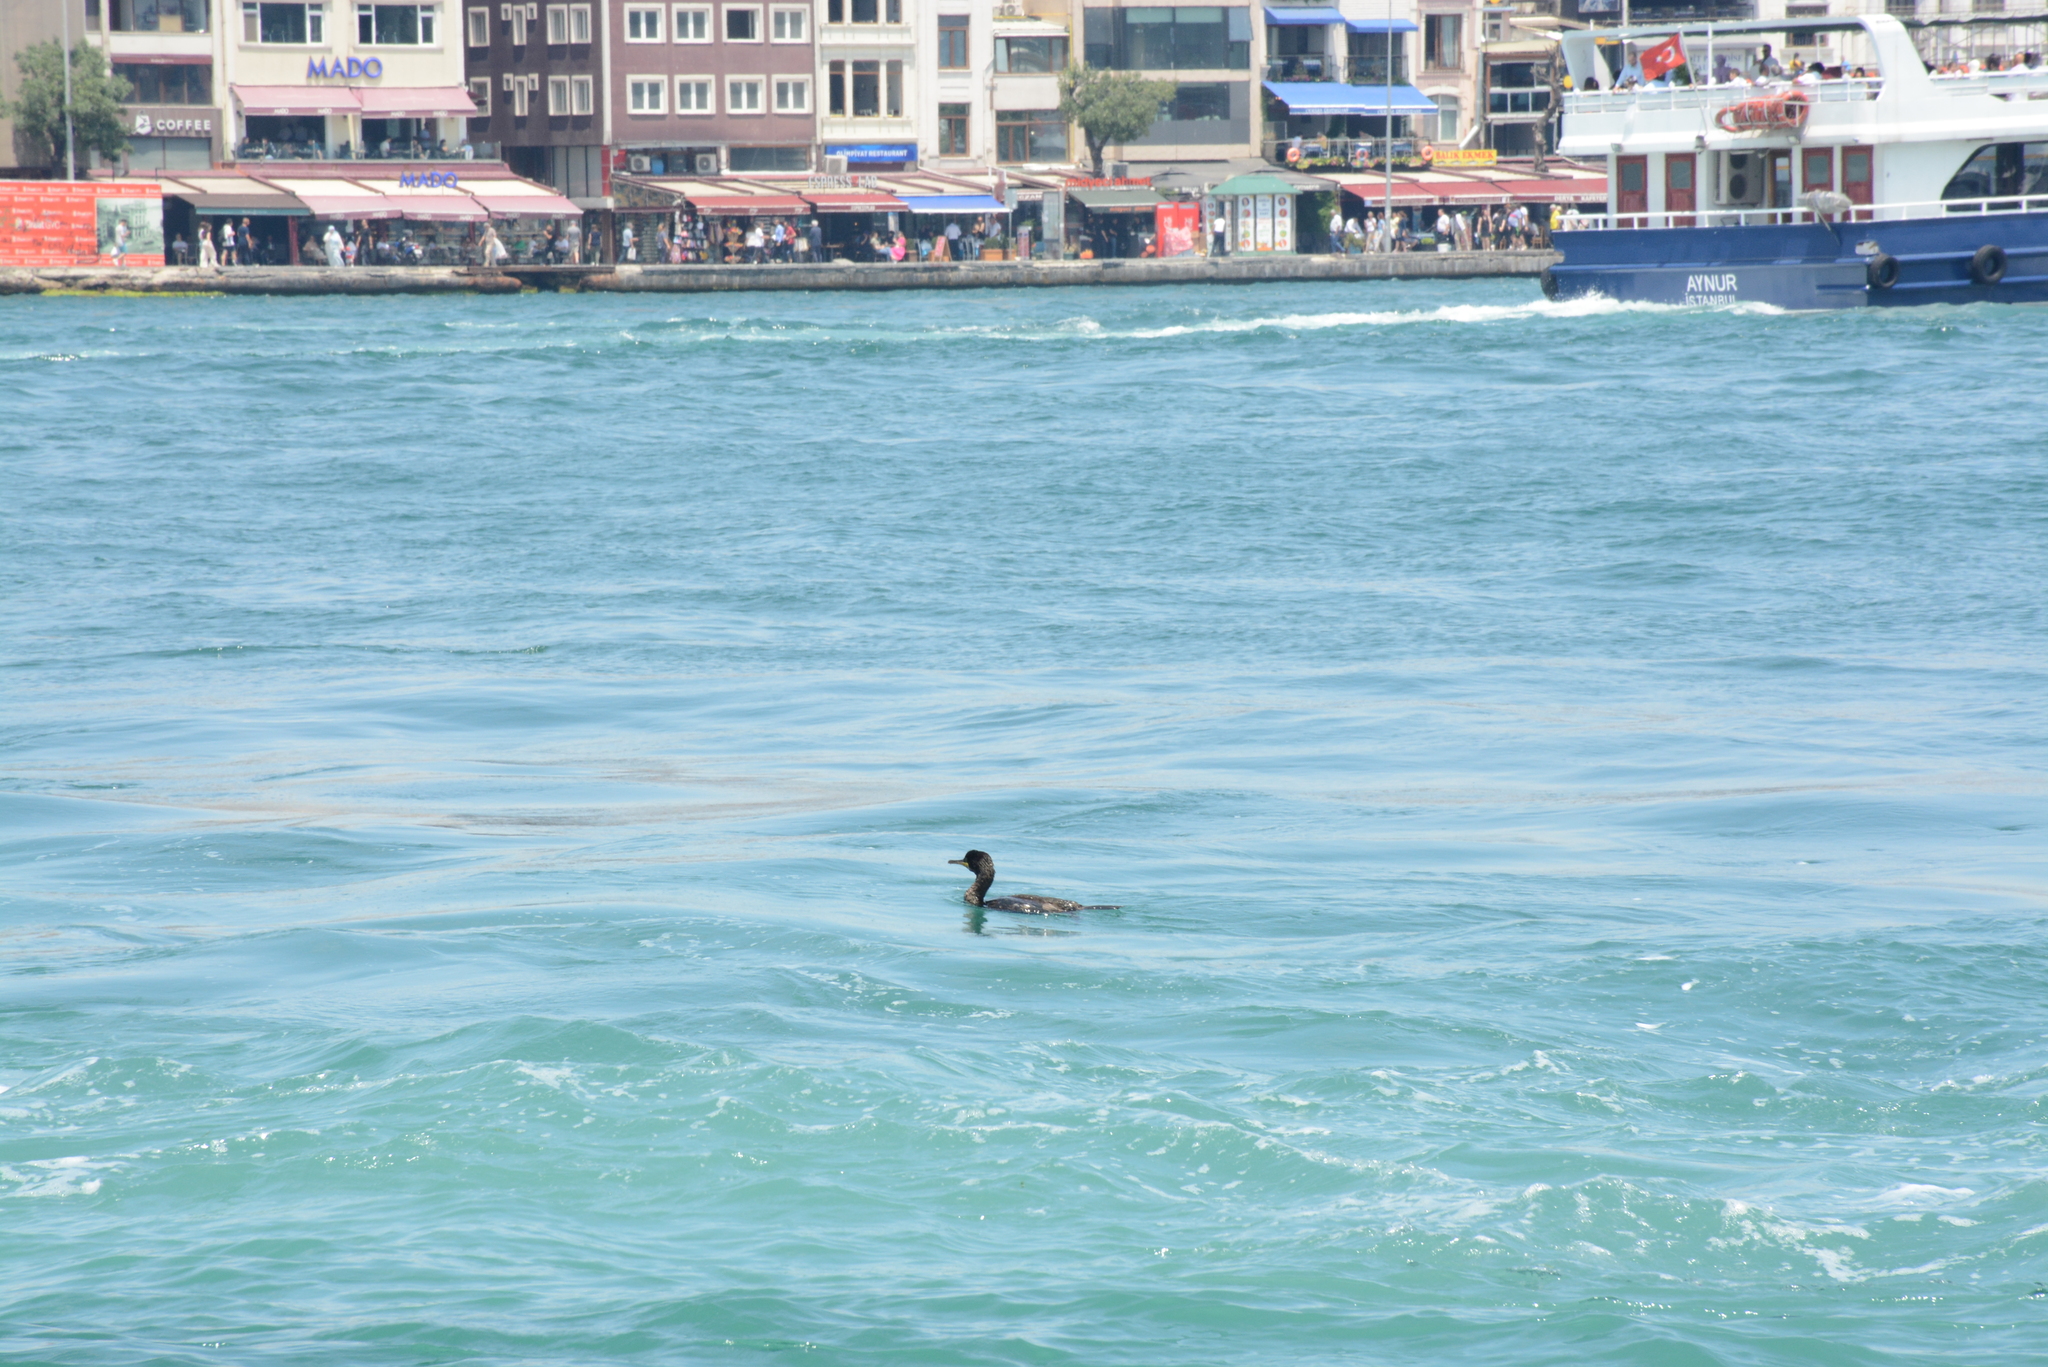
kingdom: Animalia
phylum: Chordata
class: Aves
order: Suliformes
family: Phalacrocoracidae
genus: Phalacrocorax
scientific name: Phalacrocorax aristotelis
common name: European shag
